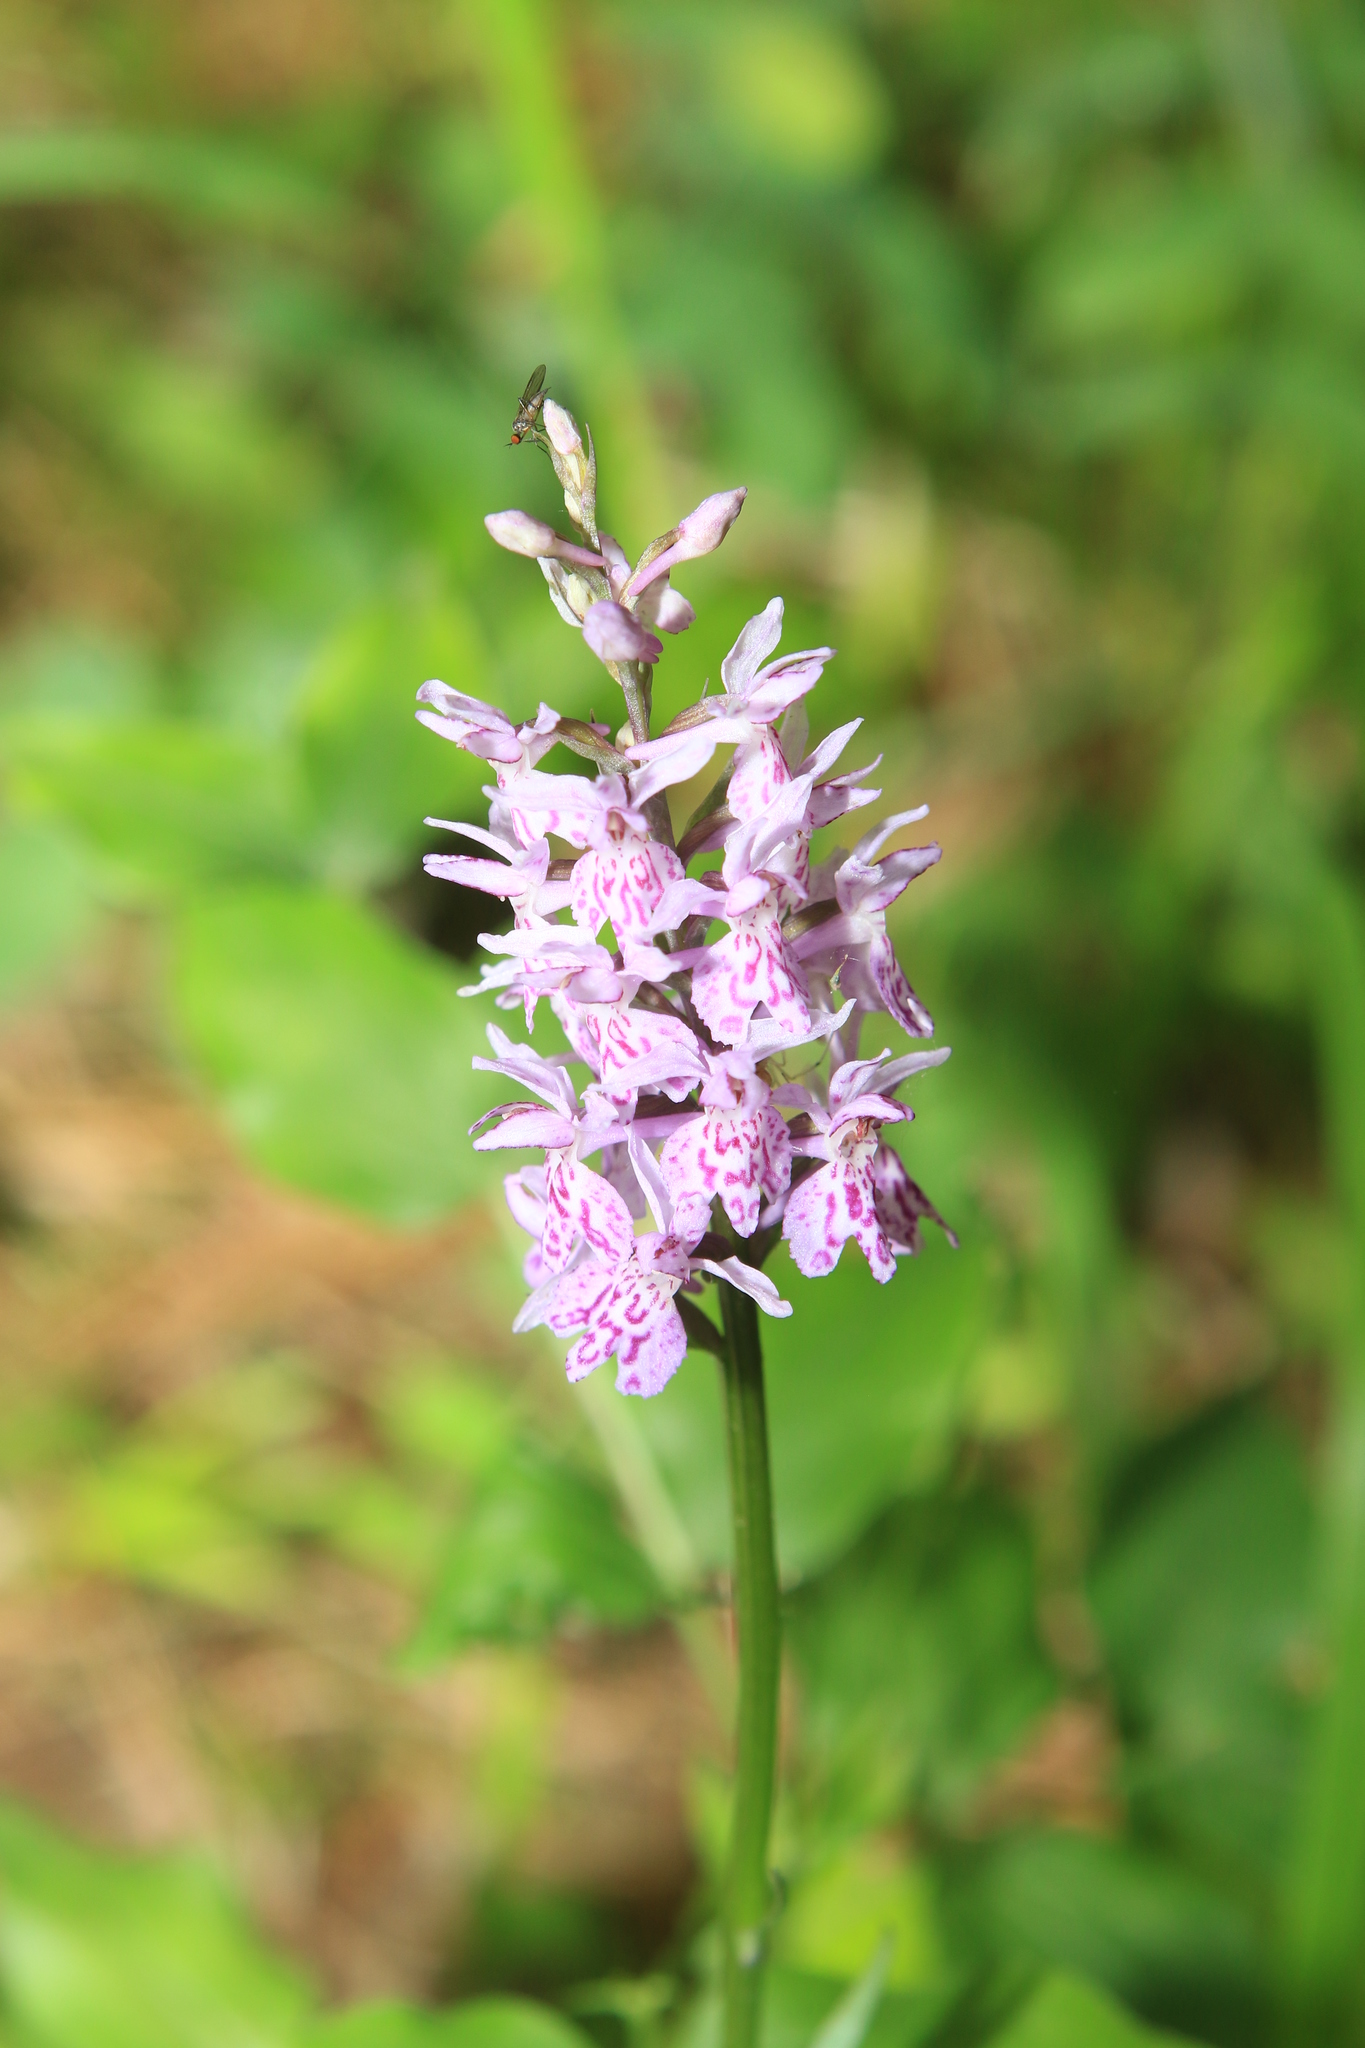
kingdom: Plantae
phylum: Tracheophyta
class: Liliopsida
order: Asparagales
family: Orchidaceae
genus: Dactylorhiza
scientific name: Dactylorhiza maculata
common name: Heath spotted-orchid
